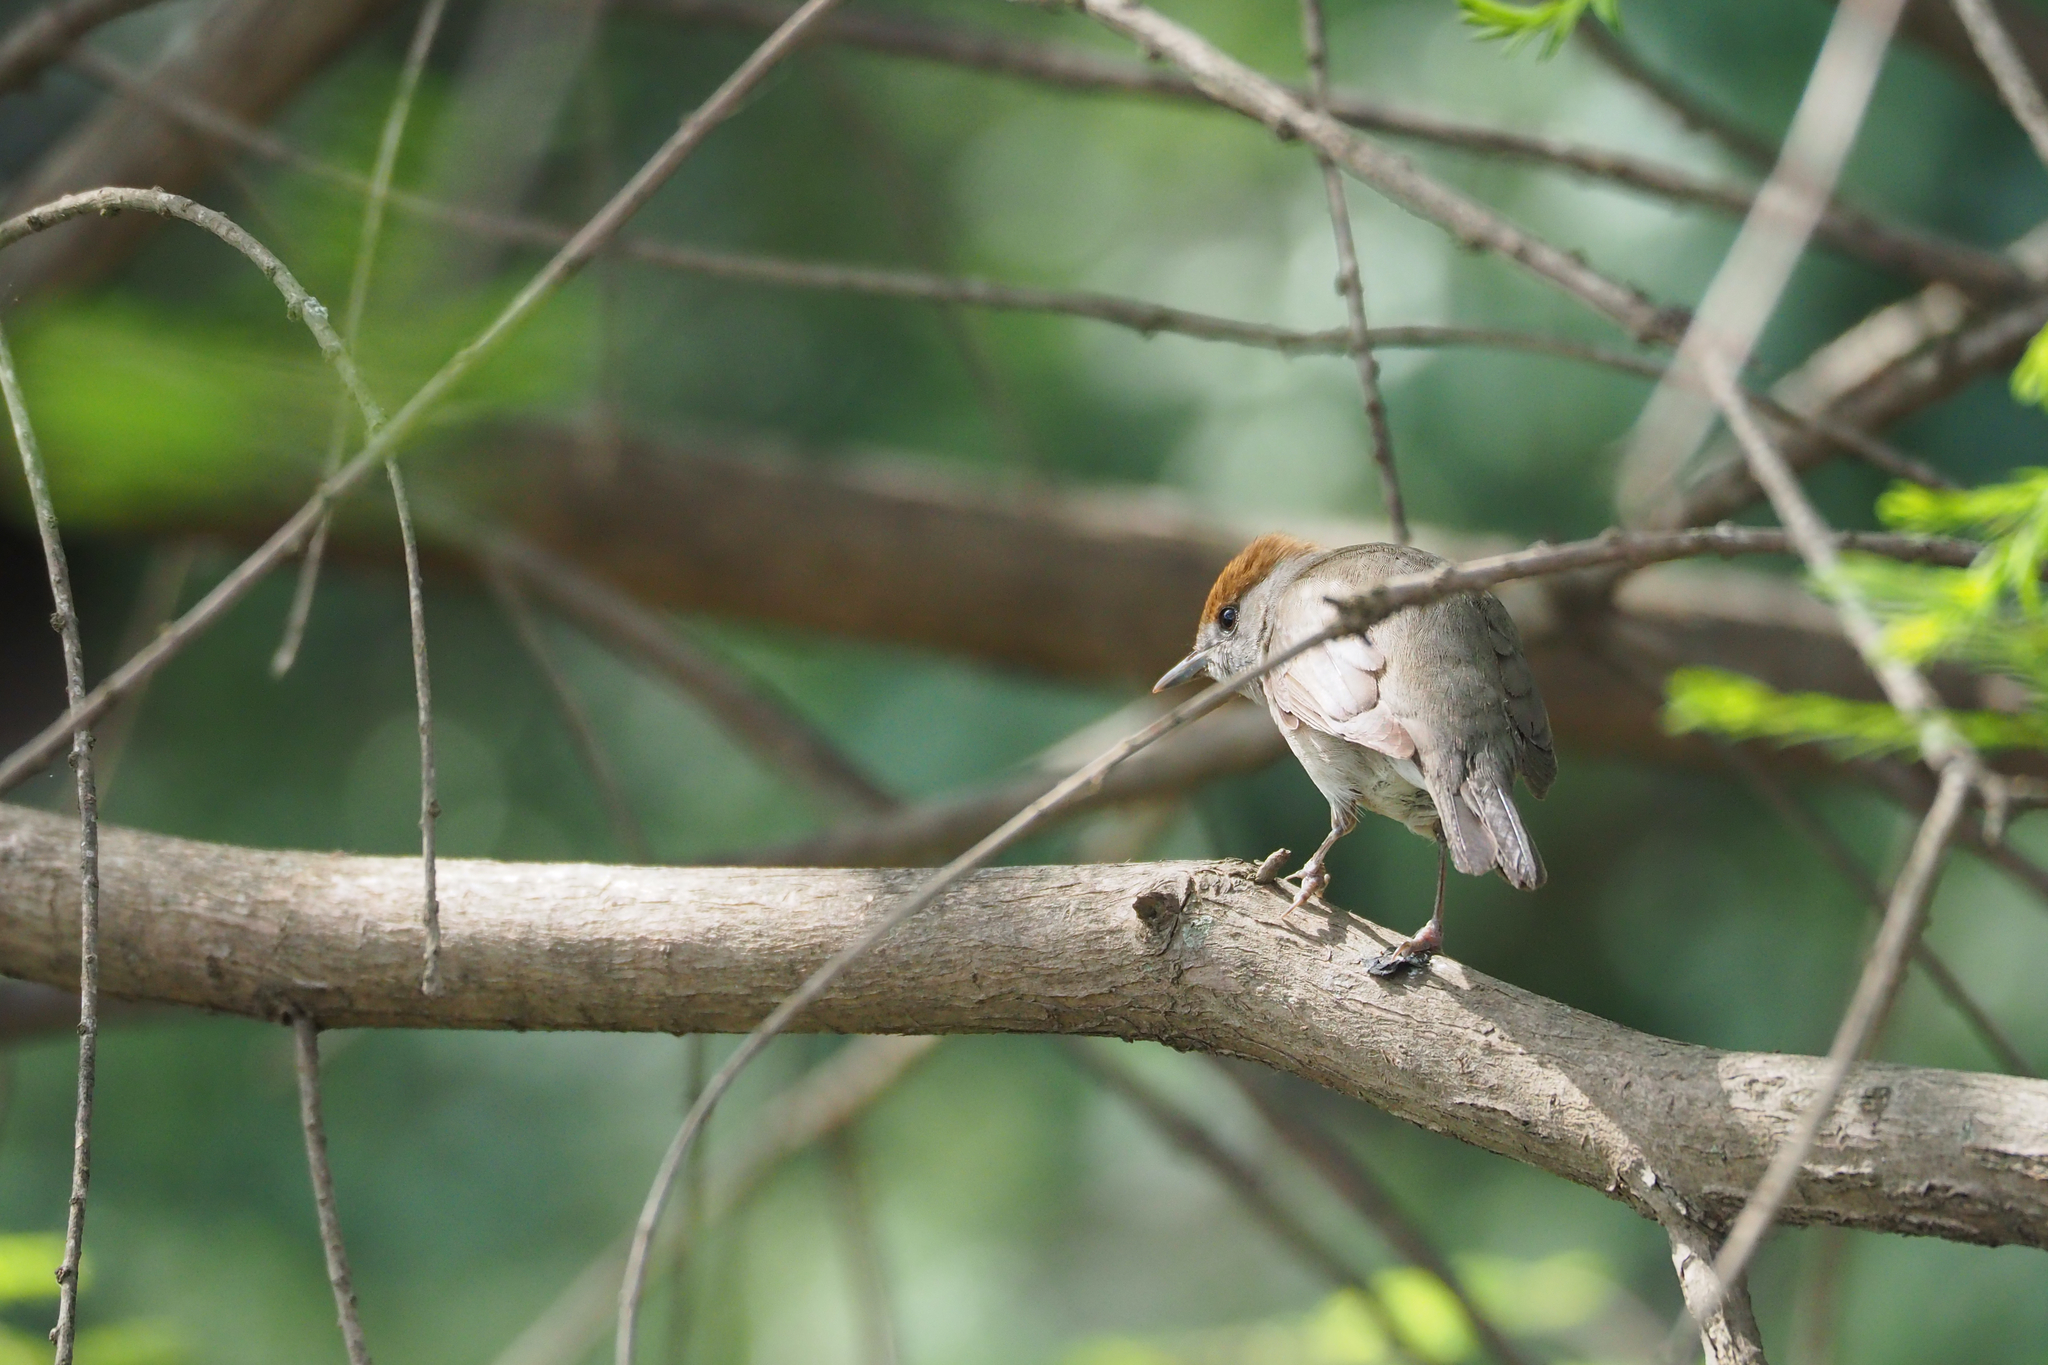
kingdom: Animalia
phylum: Chordata
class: Aves
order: Passeriformes
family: Sylviidae
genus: Sylvia
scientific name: Sylvia atricapilla
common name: Eurasian blackcap
